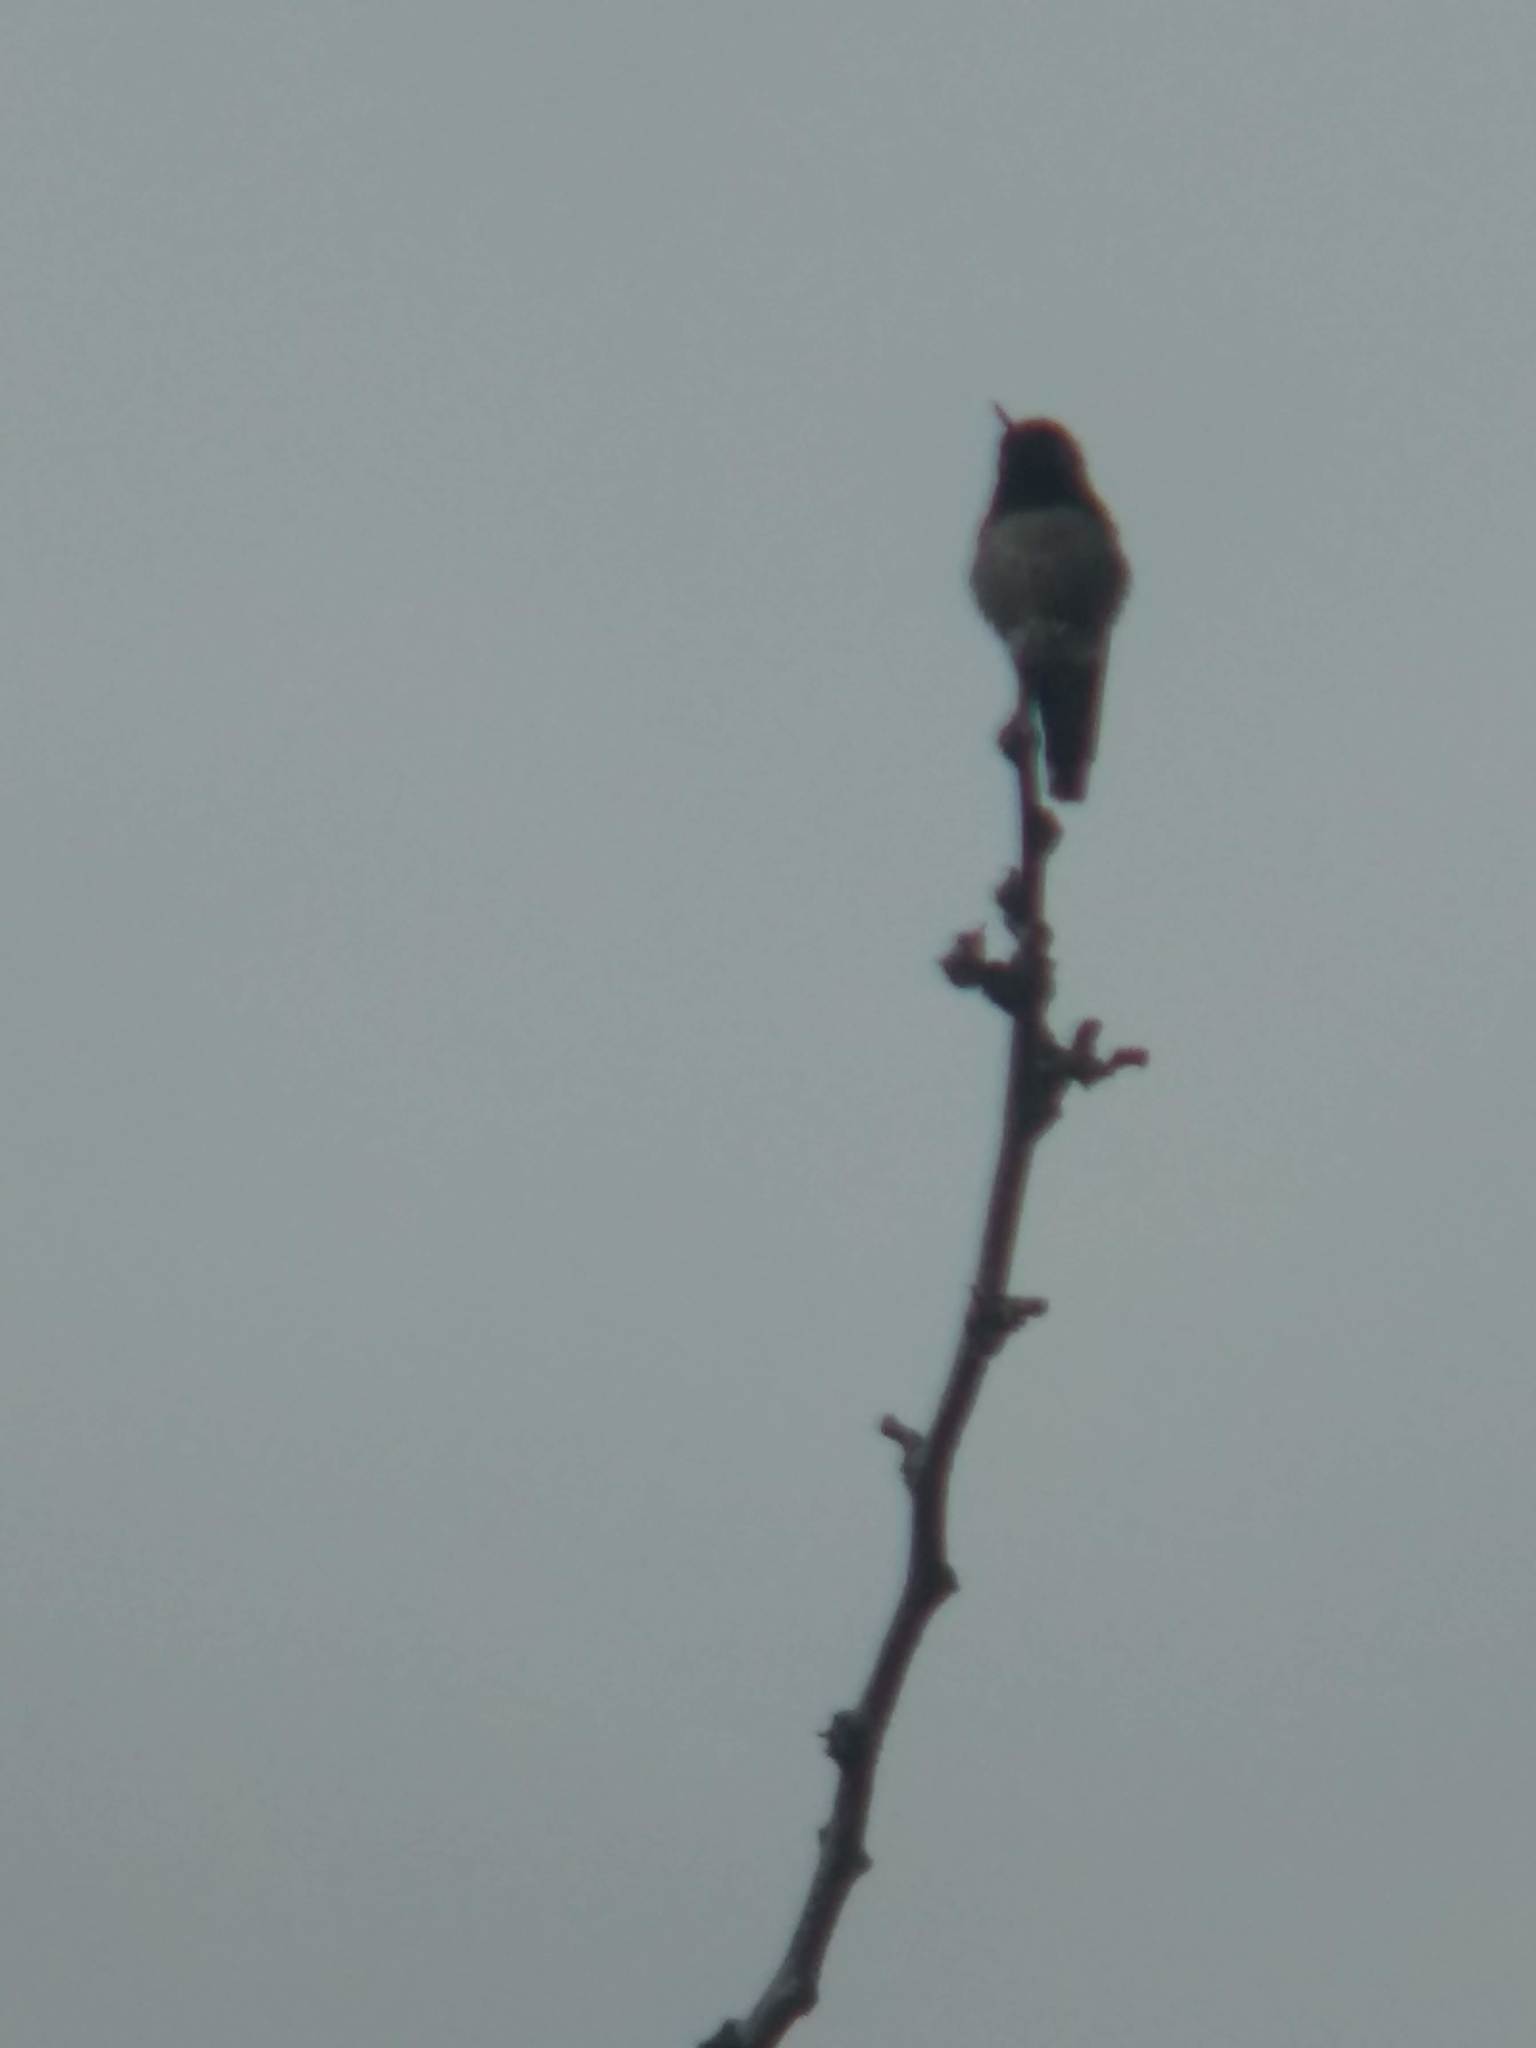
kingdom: Animalia
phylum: Chordata
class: Aves
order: Apodiformes
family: Trochilidae
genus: Calypte
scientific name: Calypte anna
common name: Anna's hummingbird
